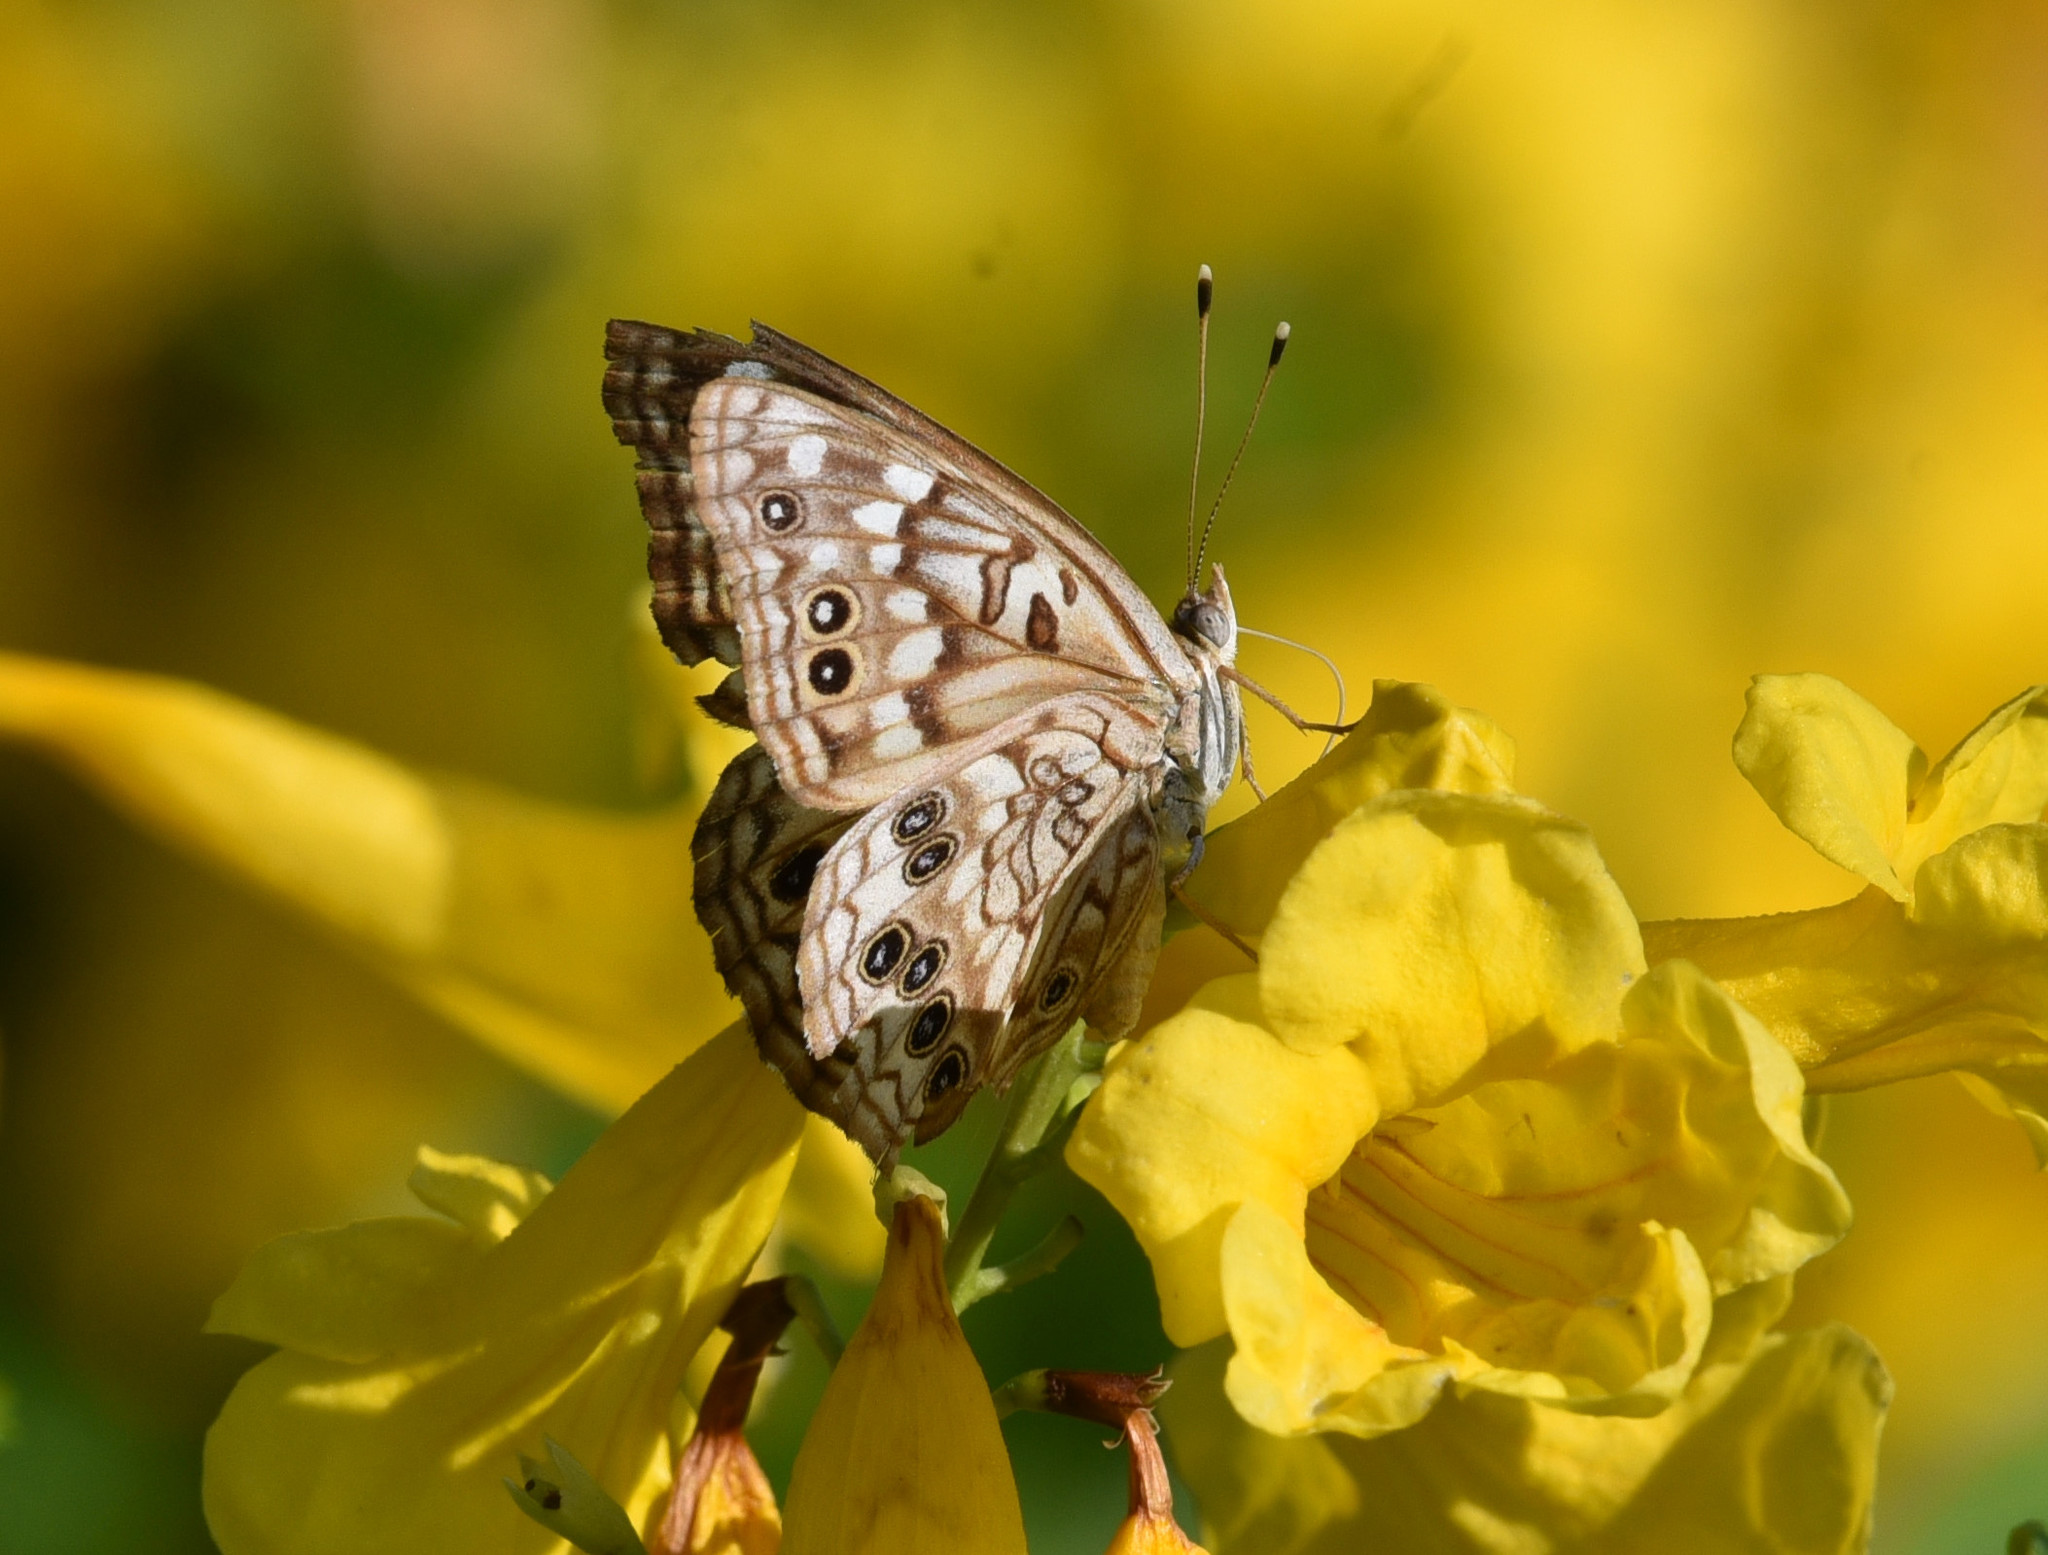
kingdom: Animalia
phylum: Arthropoda
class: Insecta
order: Lepidoptera
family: Nymphalidae
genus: Asterocampa
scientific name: Asterocampa celtis
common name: Hackberry emperor
